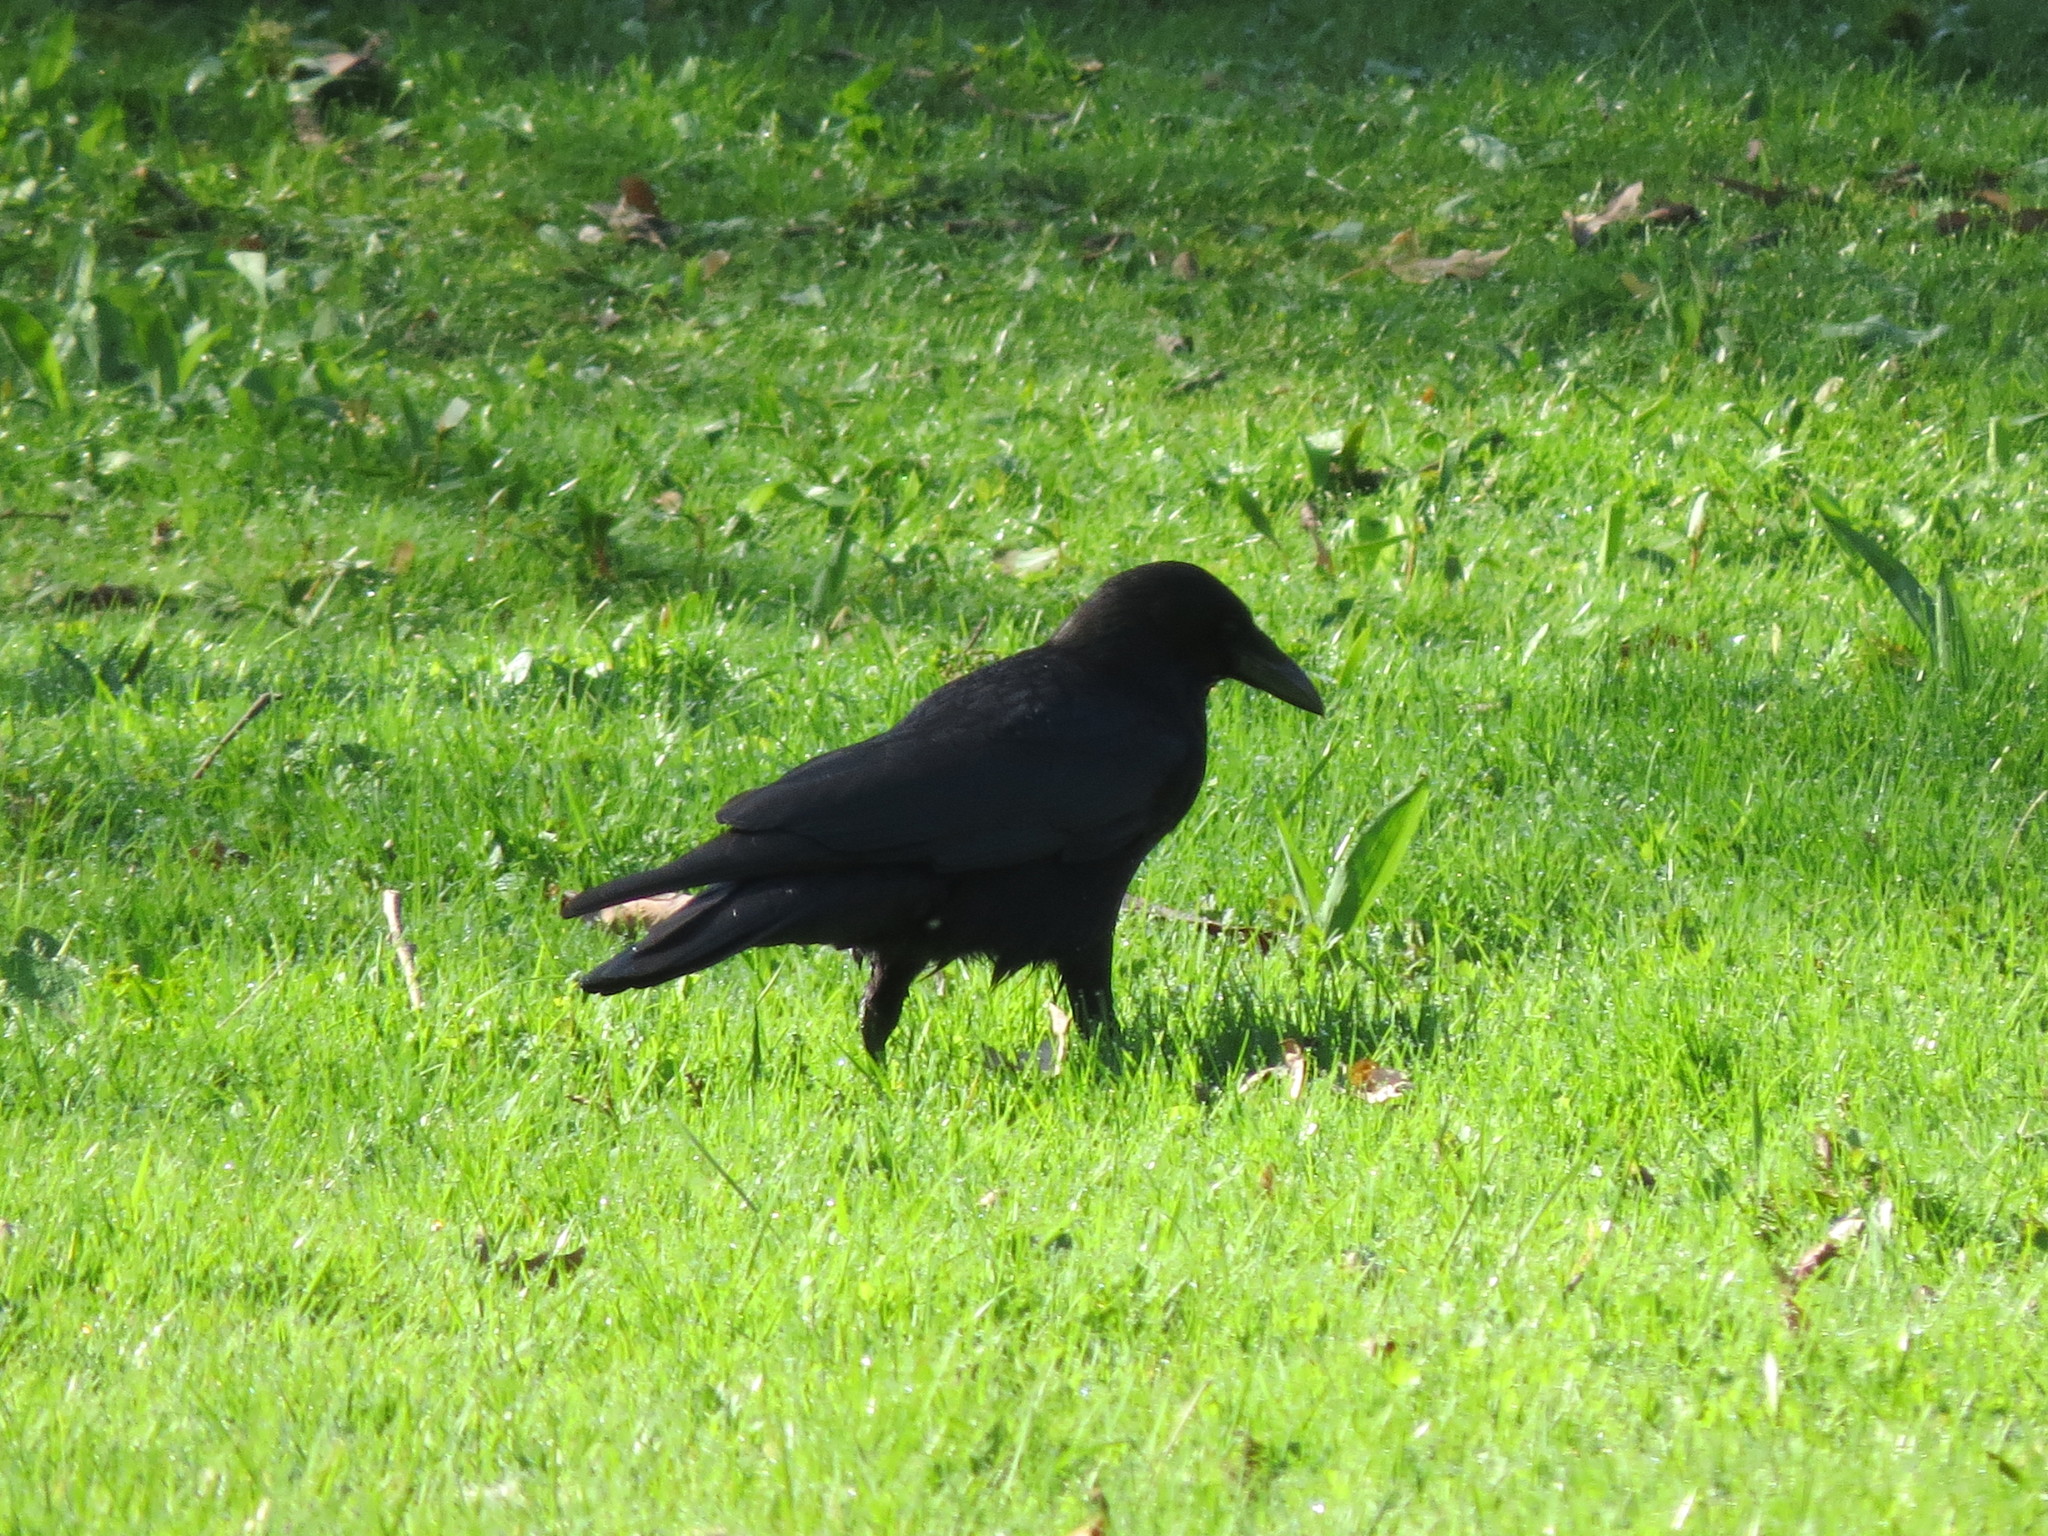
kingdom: Animalia
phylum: Chordata
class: Aves
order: Passeriformes
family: Corvidae
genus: Corvus
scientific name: Corvus corone
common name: Carrion crow
